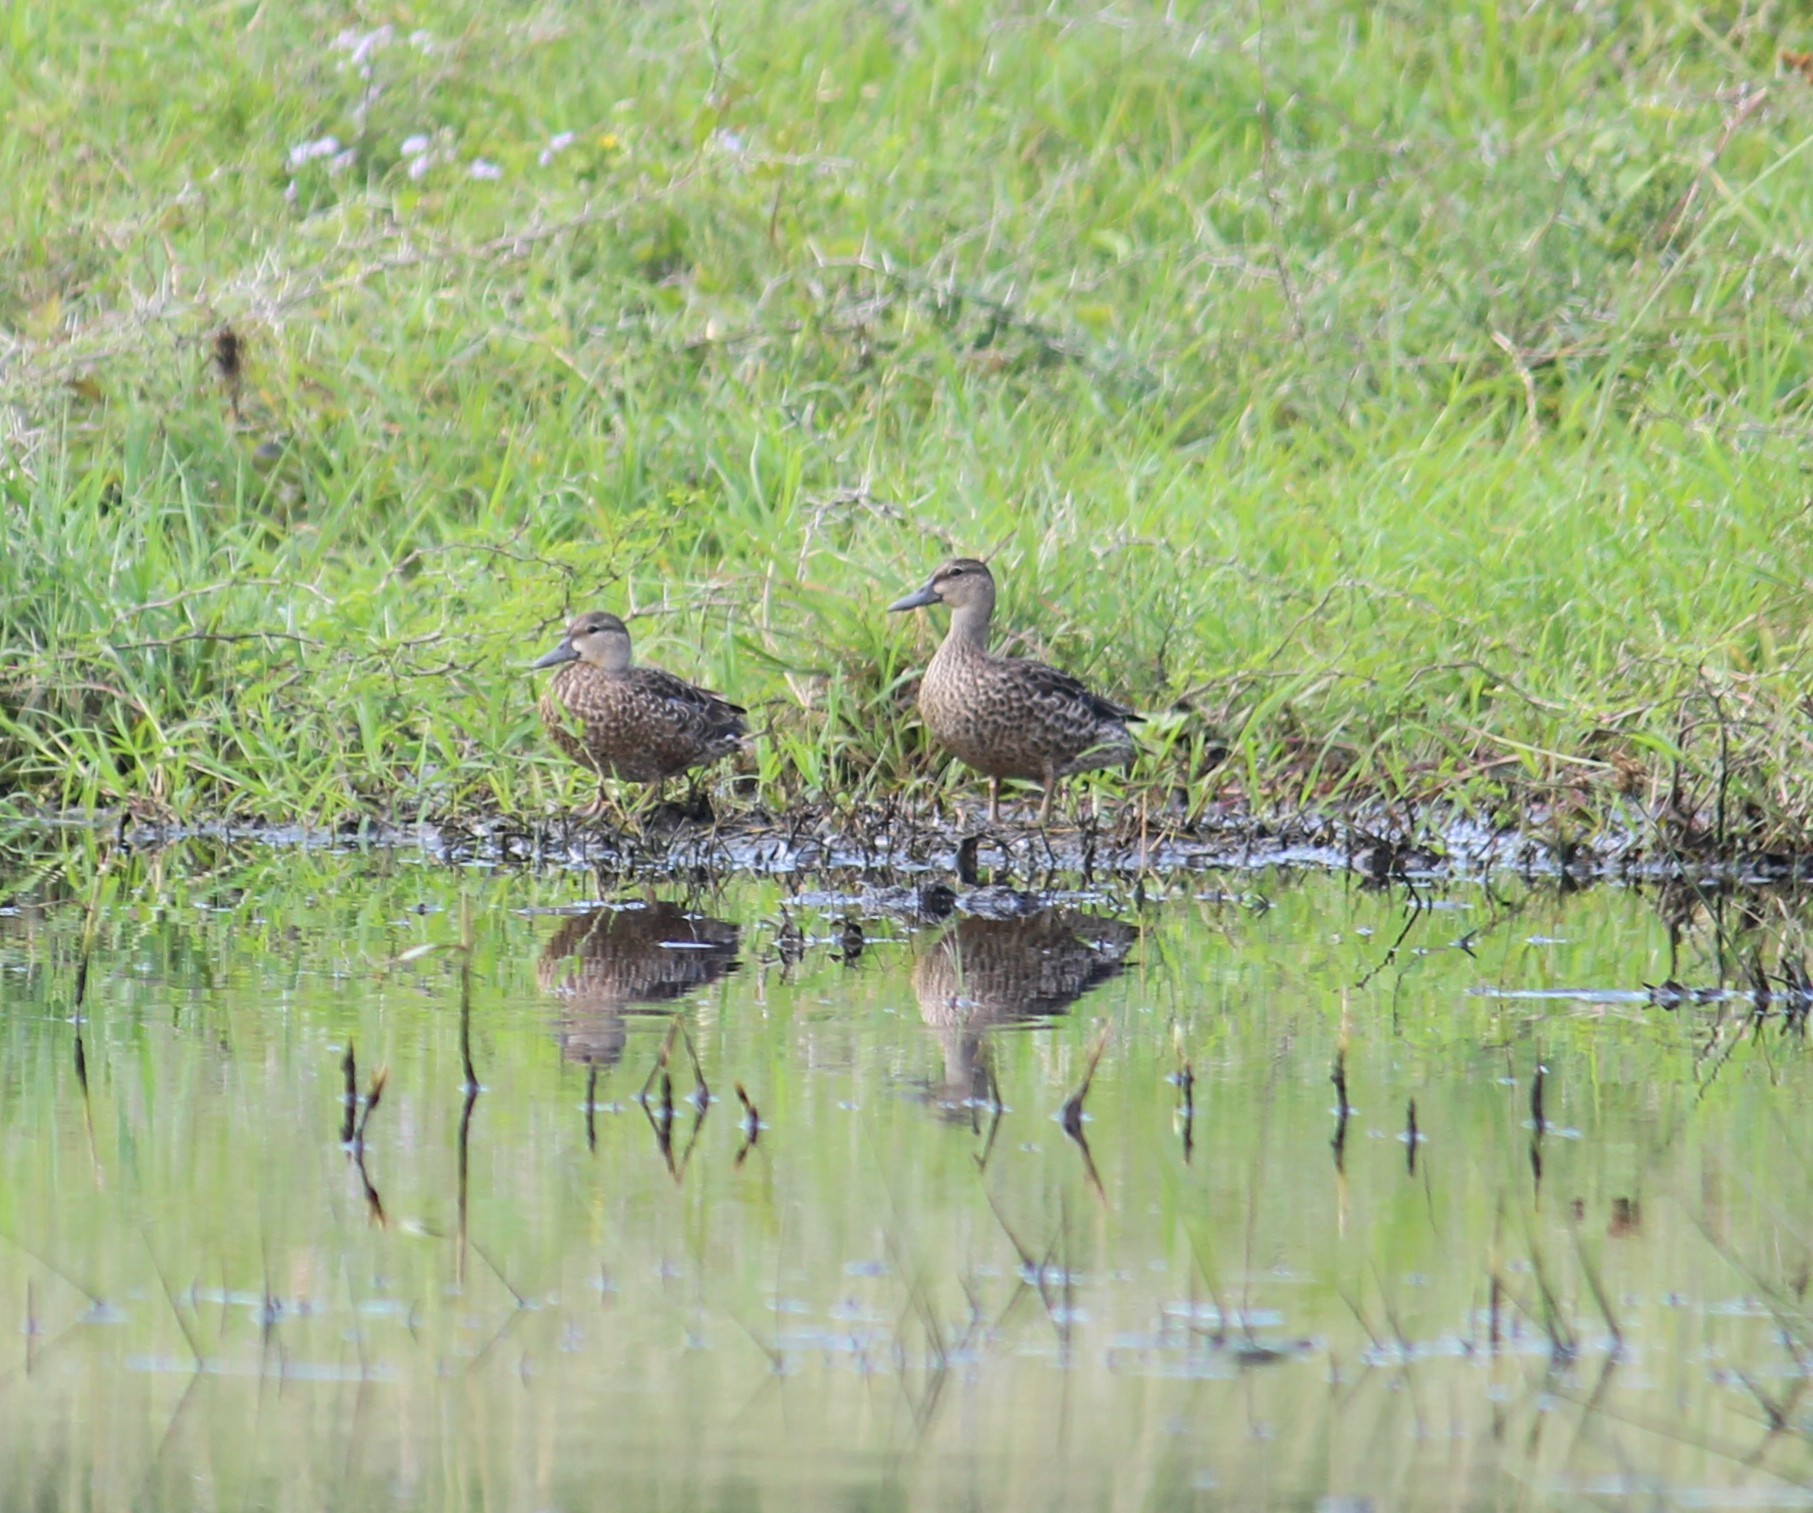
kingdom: Animalia
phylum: Chordata
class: Aves
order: Anseriformes
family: Anatidae
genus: Spatula
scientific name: Spatula discors
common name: Blue-winged teal
